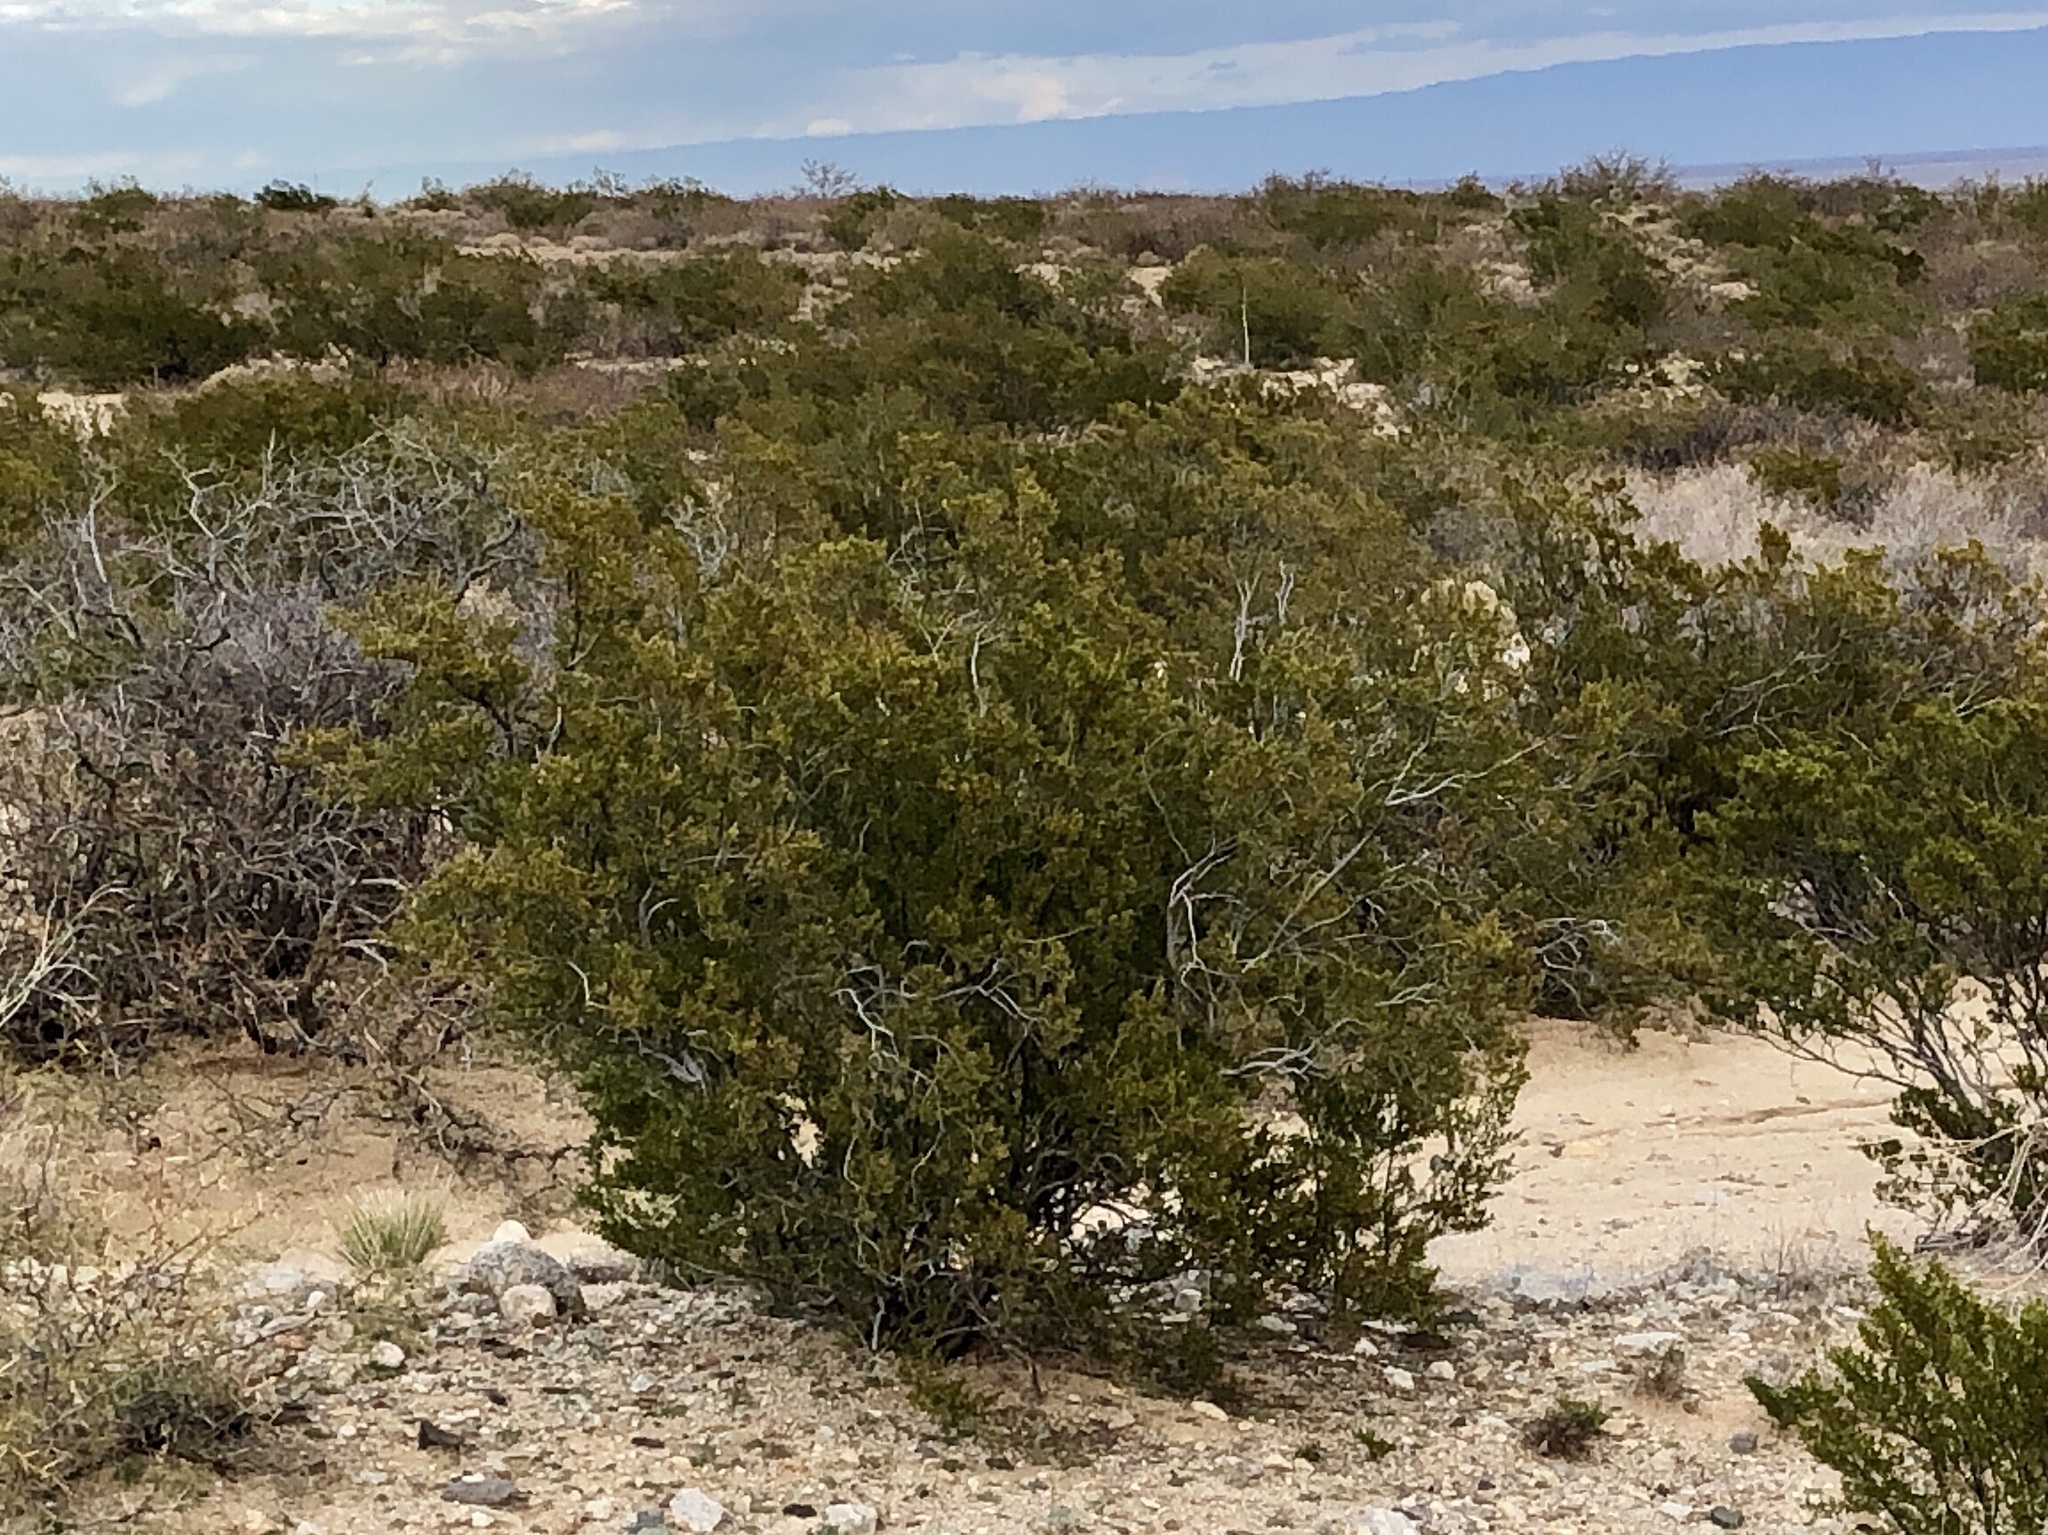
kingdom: Plantae
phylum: Tracheophyta
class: Magnoliopsida
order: Zygophyllales
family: Zygophyllaceae
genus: Larrea
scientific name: Larrea tridentata
